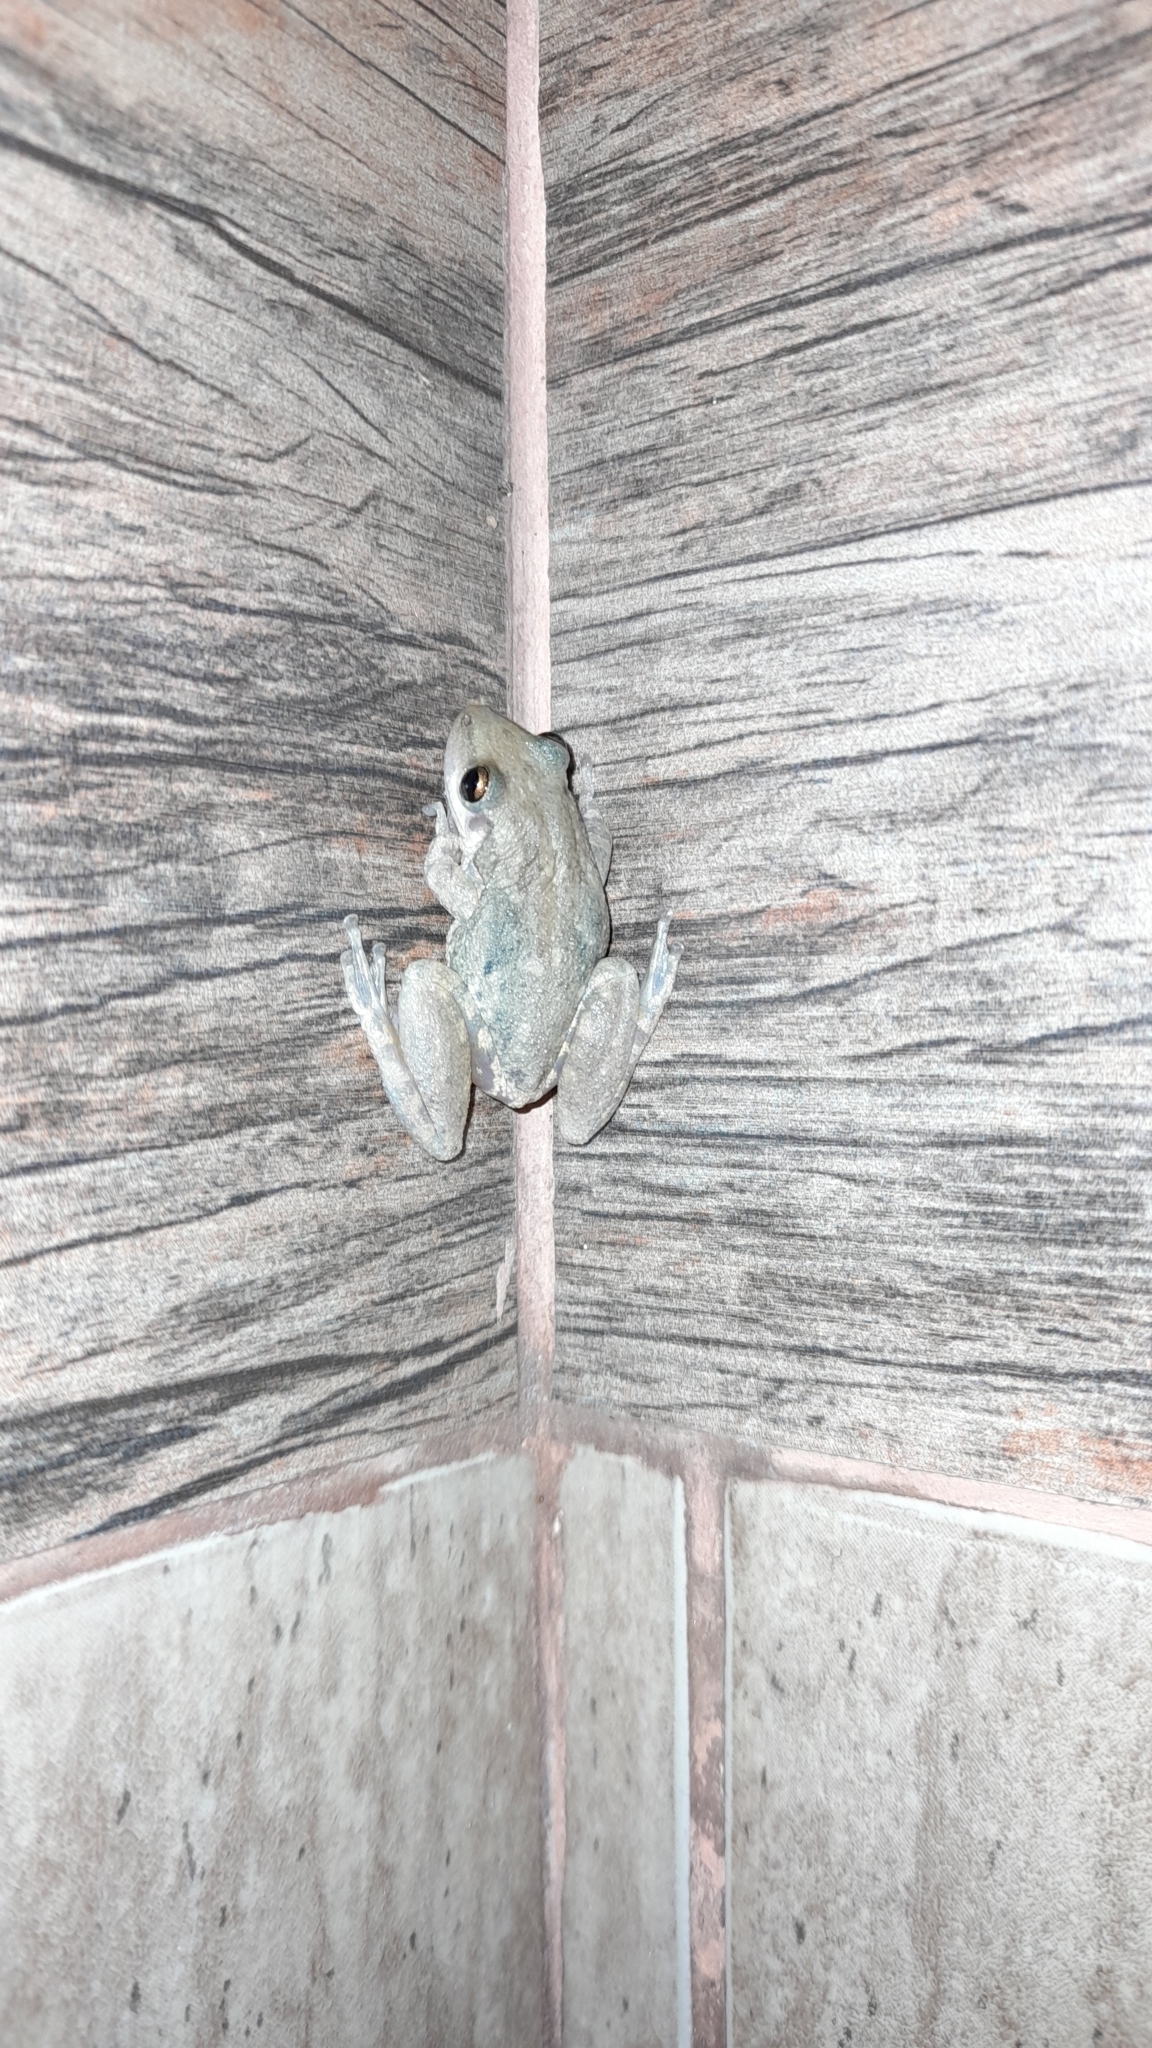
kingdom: Animalia
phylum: Chordata
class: Amphibia
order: Anura
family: Hylidae
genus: Scinax
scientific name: Scinax nasicus
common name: Lesser snouted treefrog
